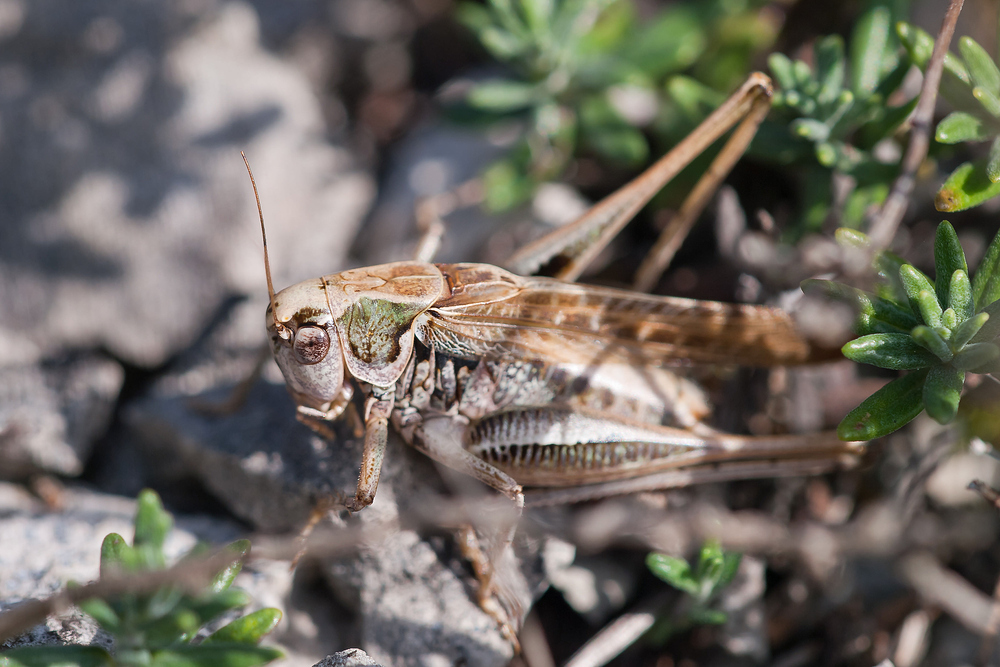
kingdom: Animalia
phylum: Arthropoda
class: Insecta
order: Orthoptera
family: Tettigoniidae
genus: Platycleis
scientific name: Platycleis albopunctata
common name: Grey bush-cricket
